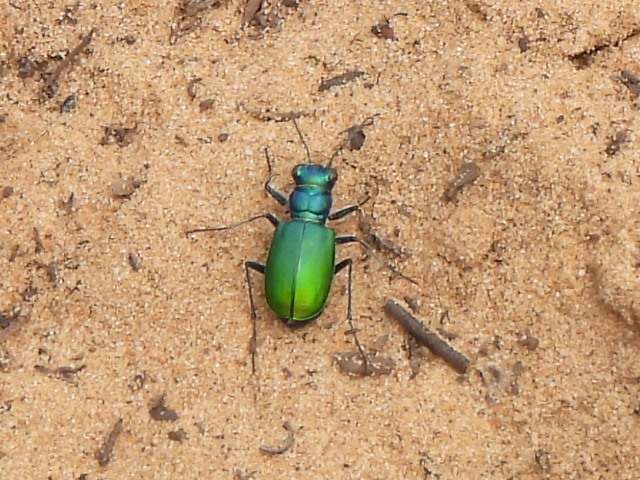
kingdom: Animalia
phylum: Arthropoda
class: Insecta
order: Coleoptera
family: Carabidae
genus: Cicindela
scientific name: Cicindela scutellaris
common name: Festive tiger beetle
